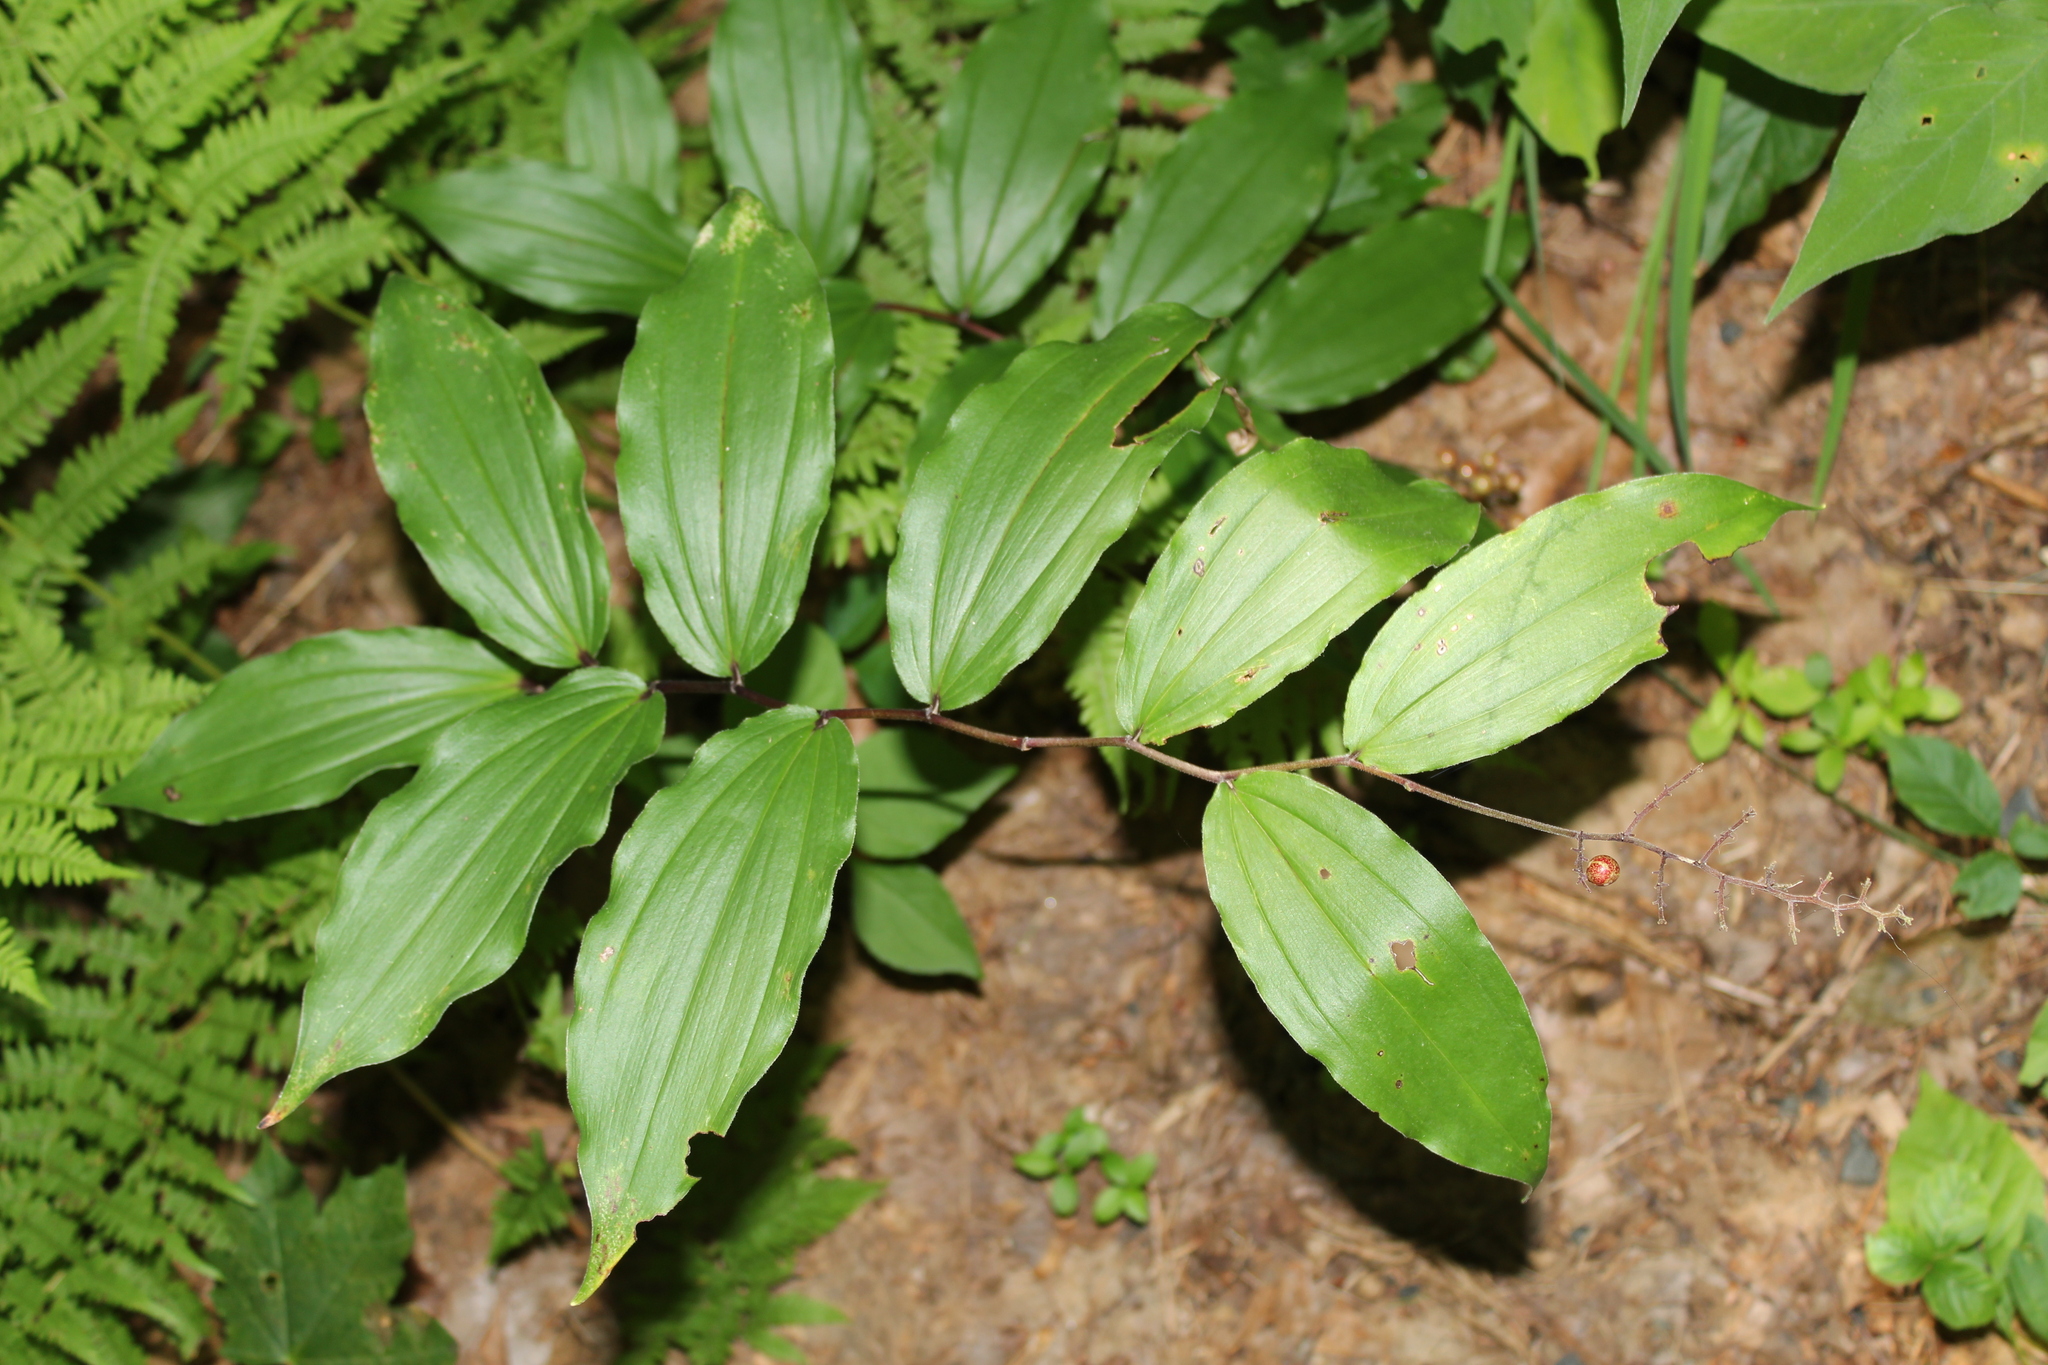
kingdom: Plantae
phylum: Tracheophyta
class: Liliopsida
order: Asparagales
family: Asparagaceae
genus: Maianthemum
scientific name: Maianthemum racemosum
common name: False spikenard
